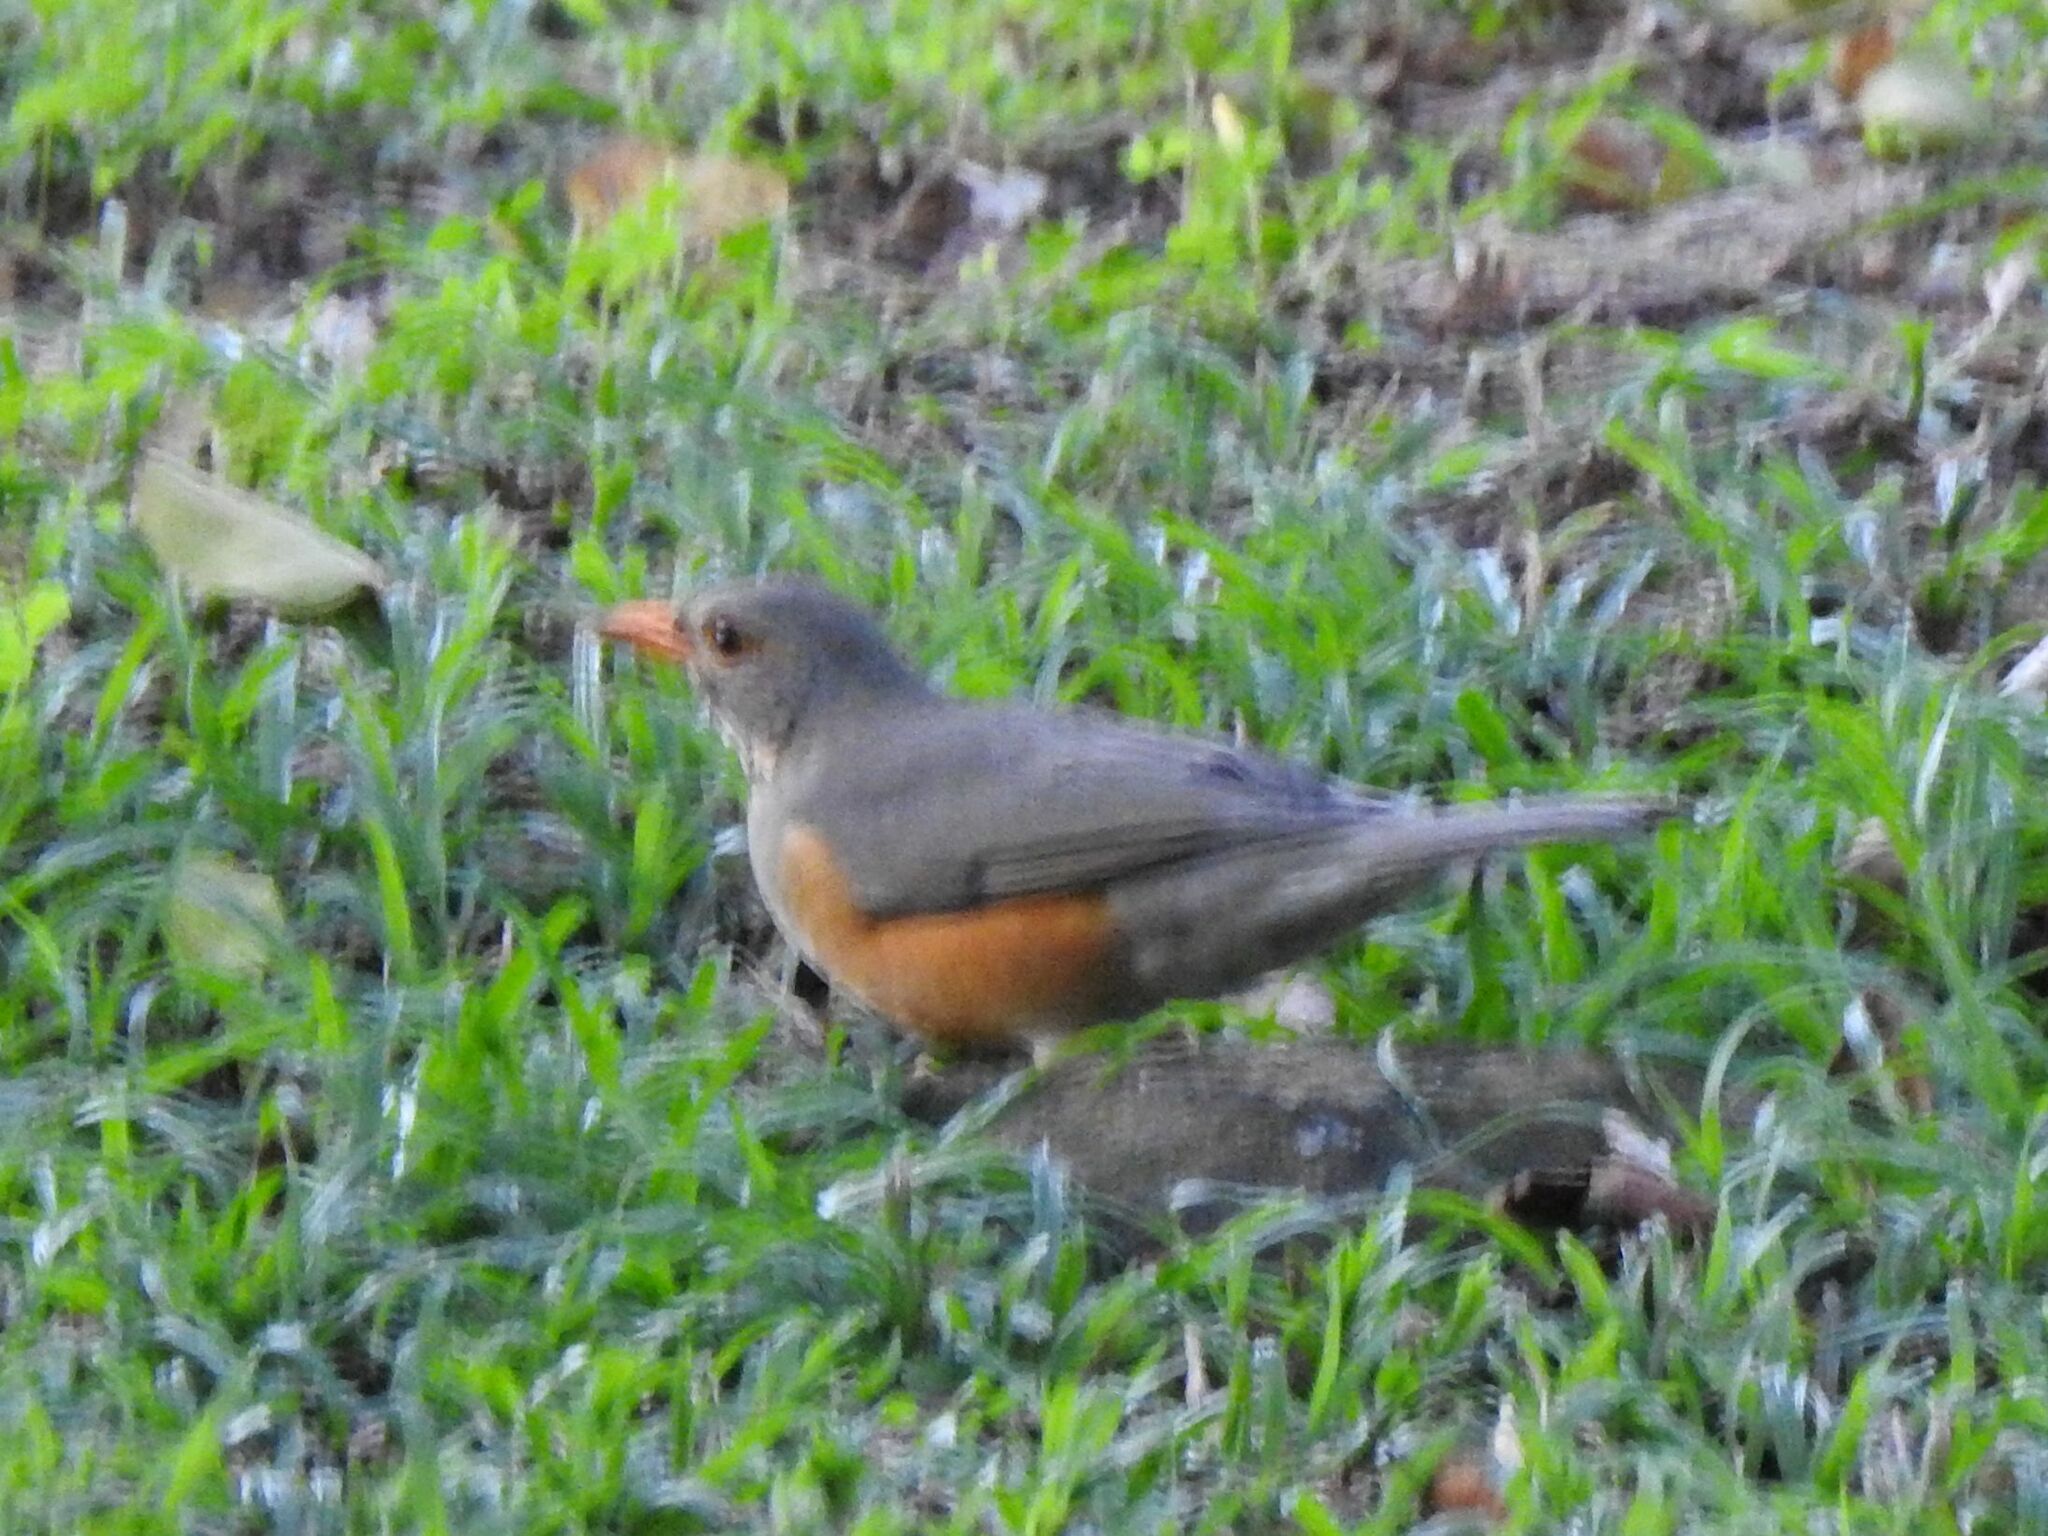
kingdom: Animalia
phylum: Chordata
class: Aves
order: Passeriformes
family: Turdidae
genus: Turdus
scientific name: Turdus libonyana
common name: Kurrichane thrush
